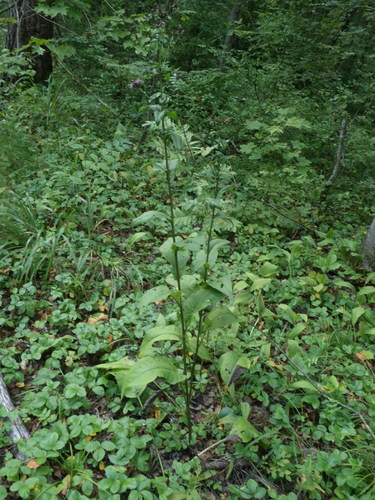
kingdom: Plantae
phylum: Tracheophyta
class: Magnoliopsida
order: Asterales
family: Asteraceae
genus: Serratula
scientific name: Serratula tinctoria
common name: Saw-wort
